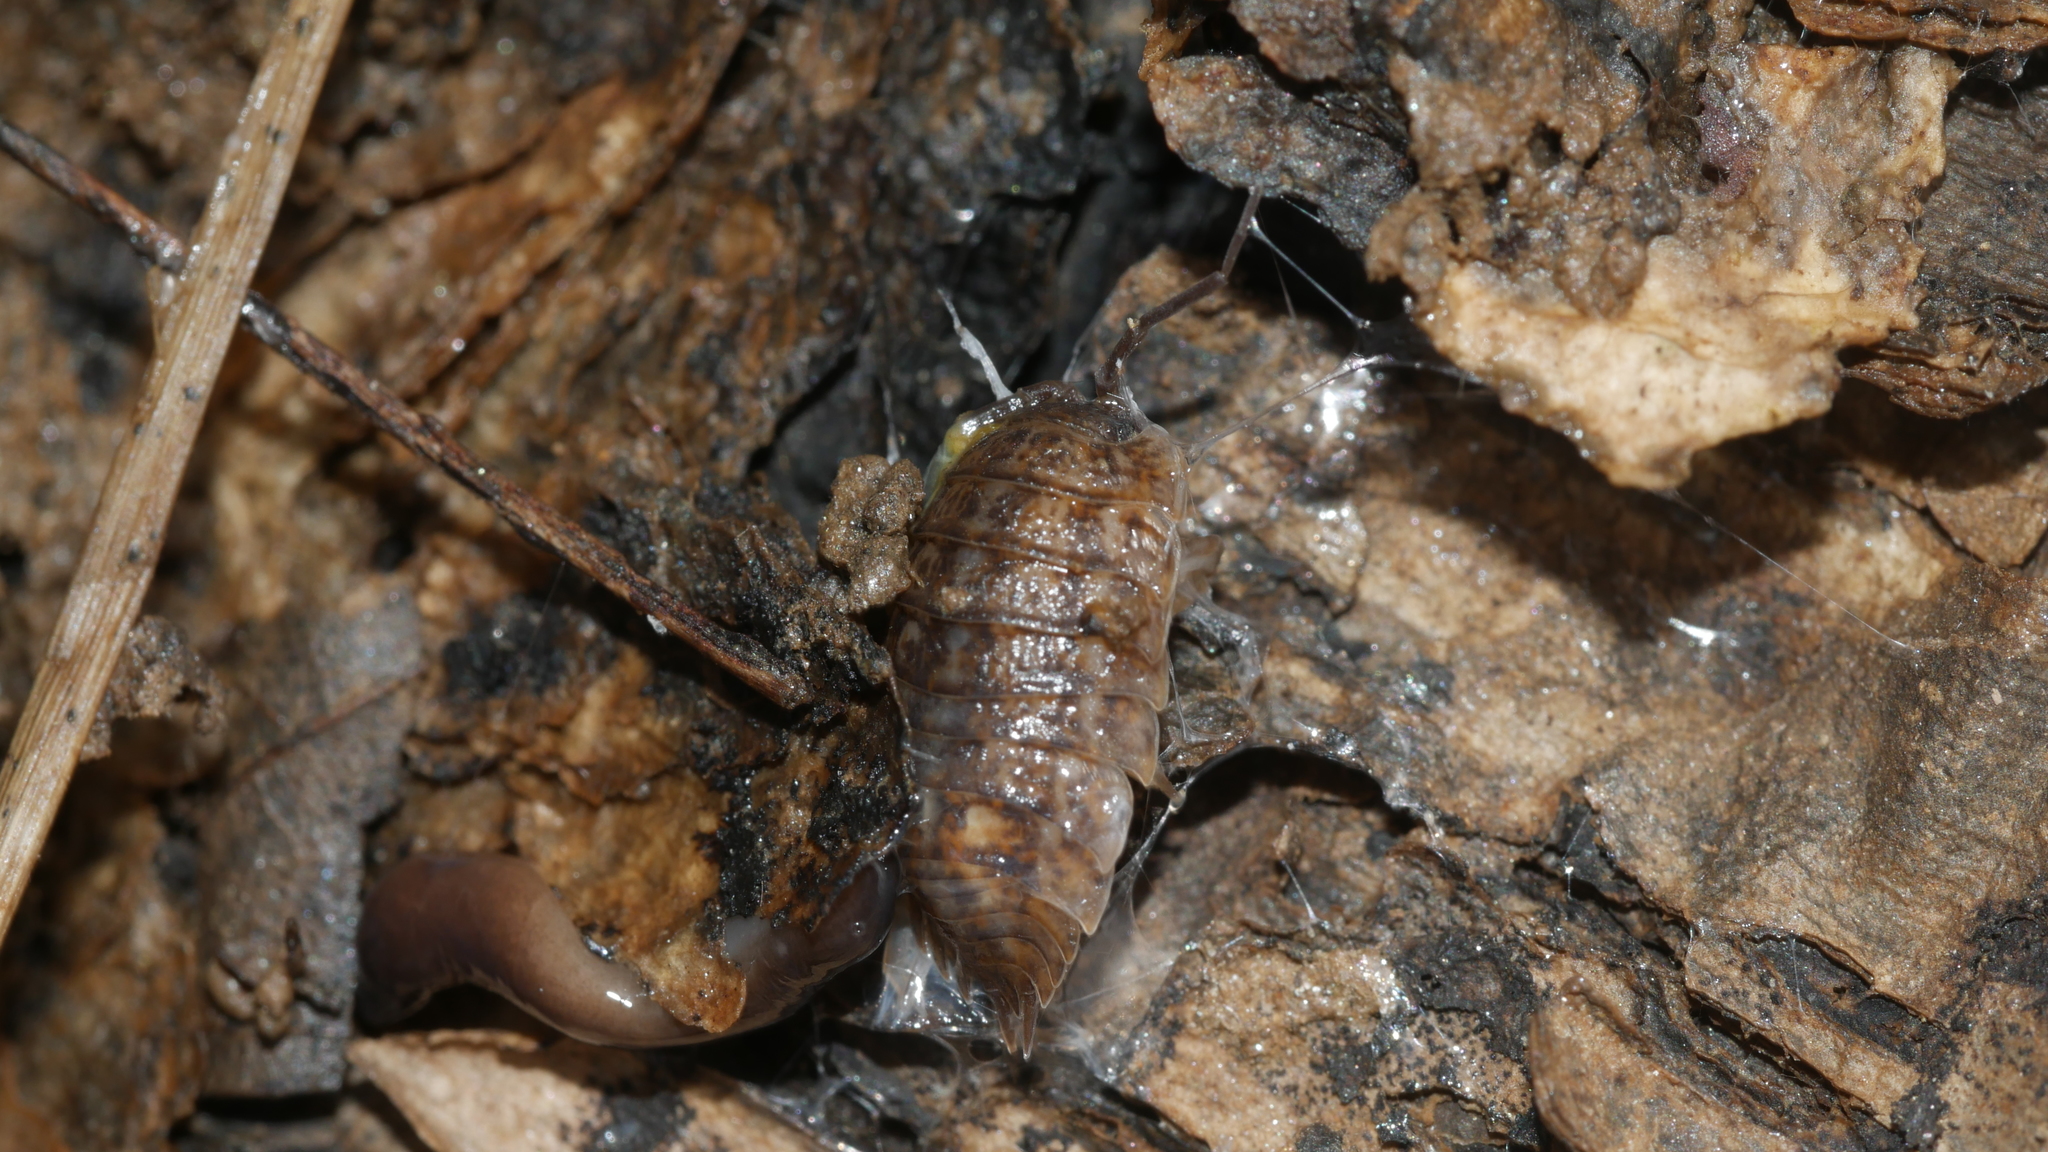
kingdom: Animalia
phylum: Arthropoda
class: Malacostraca
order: Isopoda
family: Trachelipodidae
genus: Trachelipus
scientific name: Trachelipus rathkii
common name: Isopod
